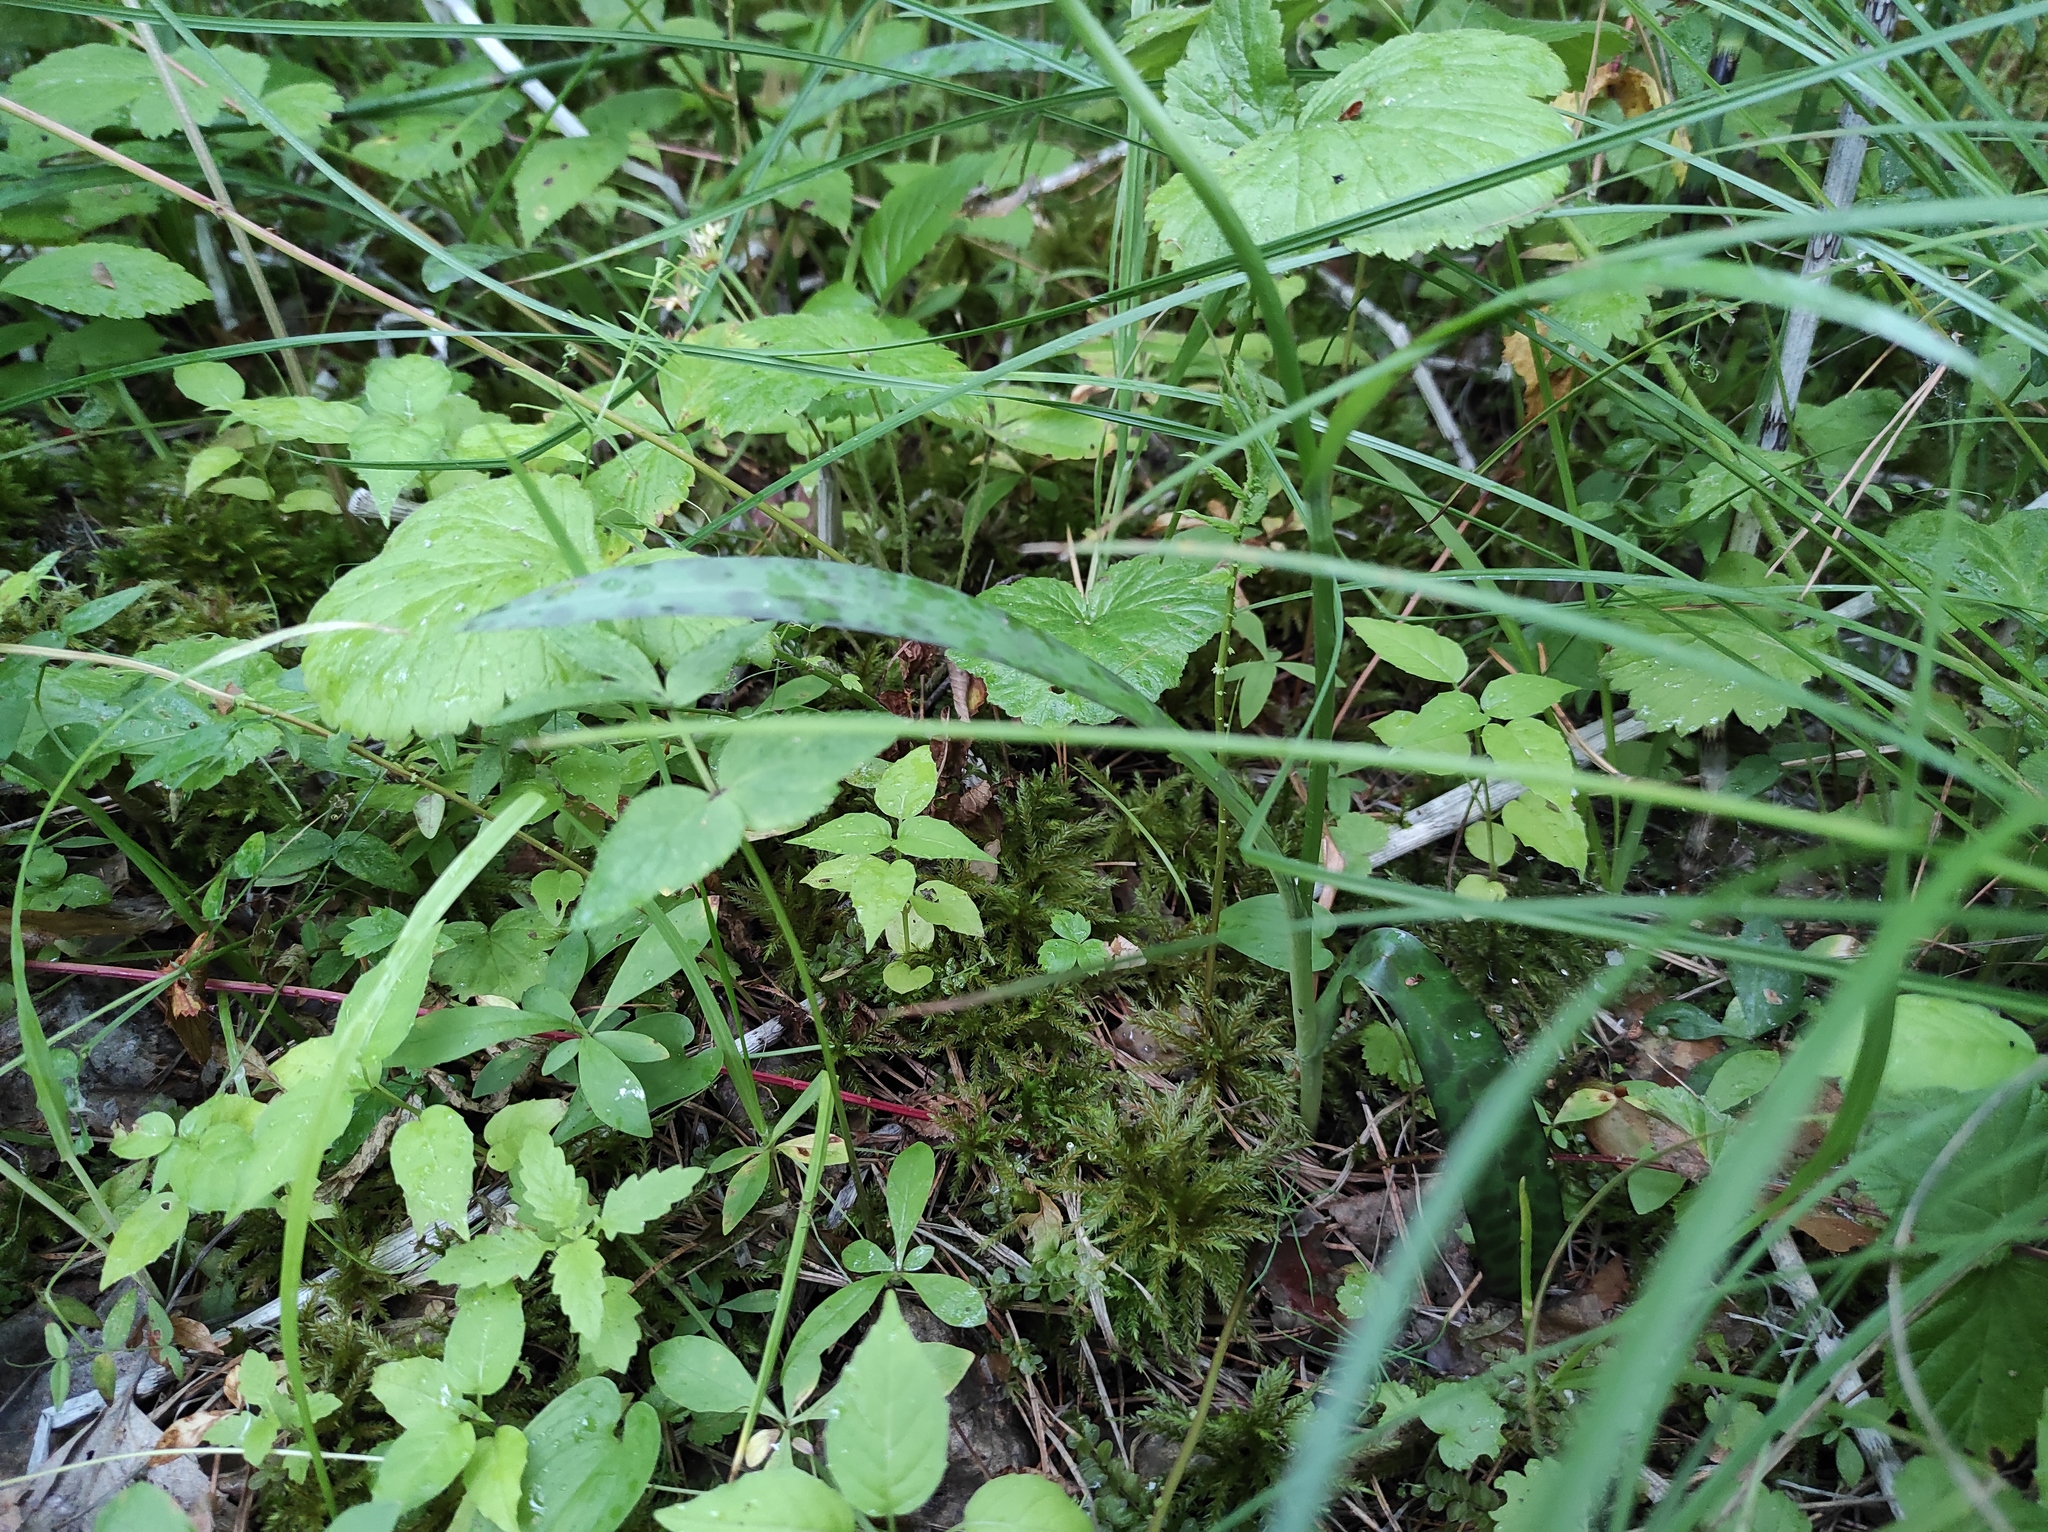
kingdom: Plantae
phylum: Tracheophyta
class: Liliopsida
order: Asparagales
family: Orchidaceae
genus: Dactylorhiza
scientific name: Dactylorhiza maculata
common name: Heath spotted-orchid
